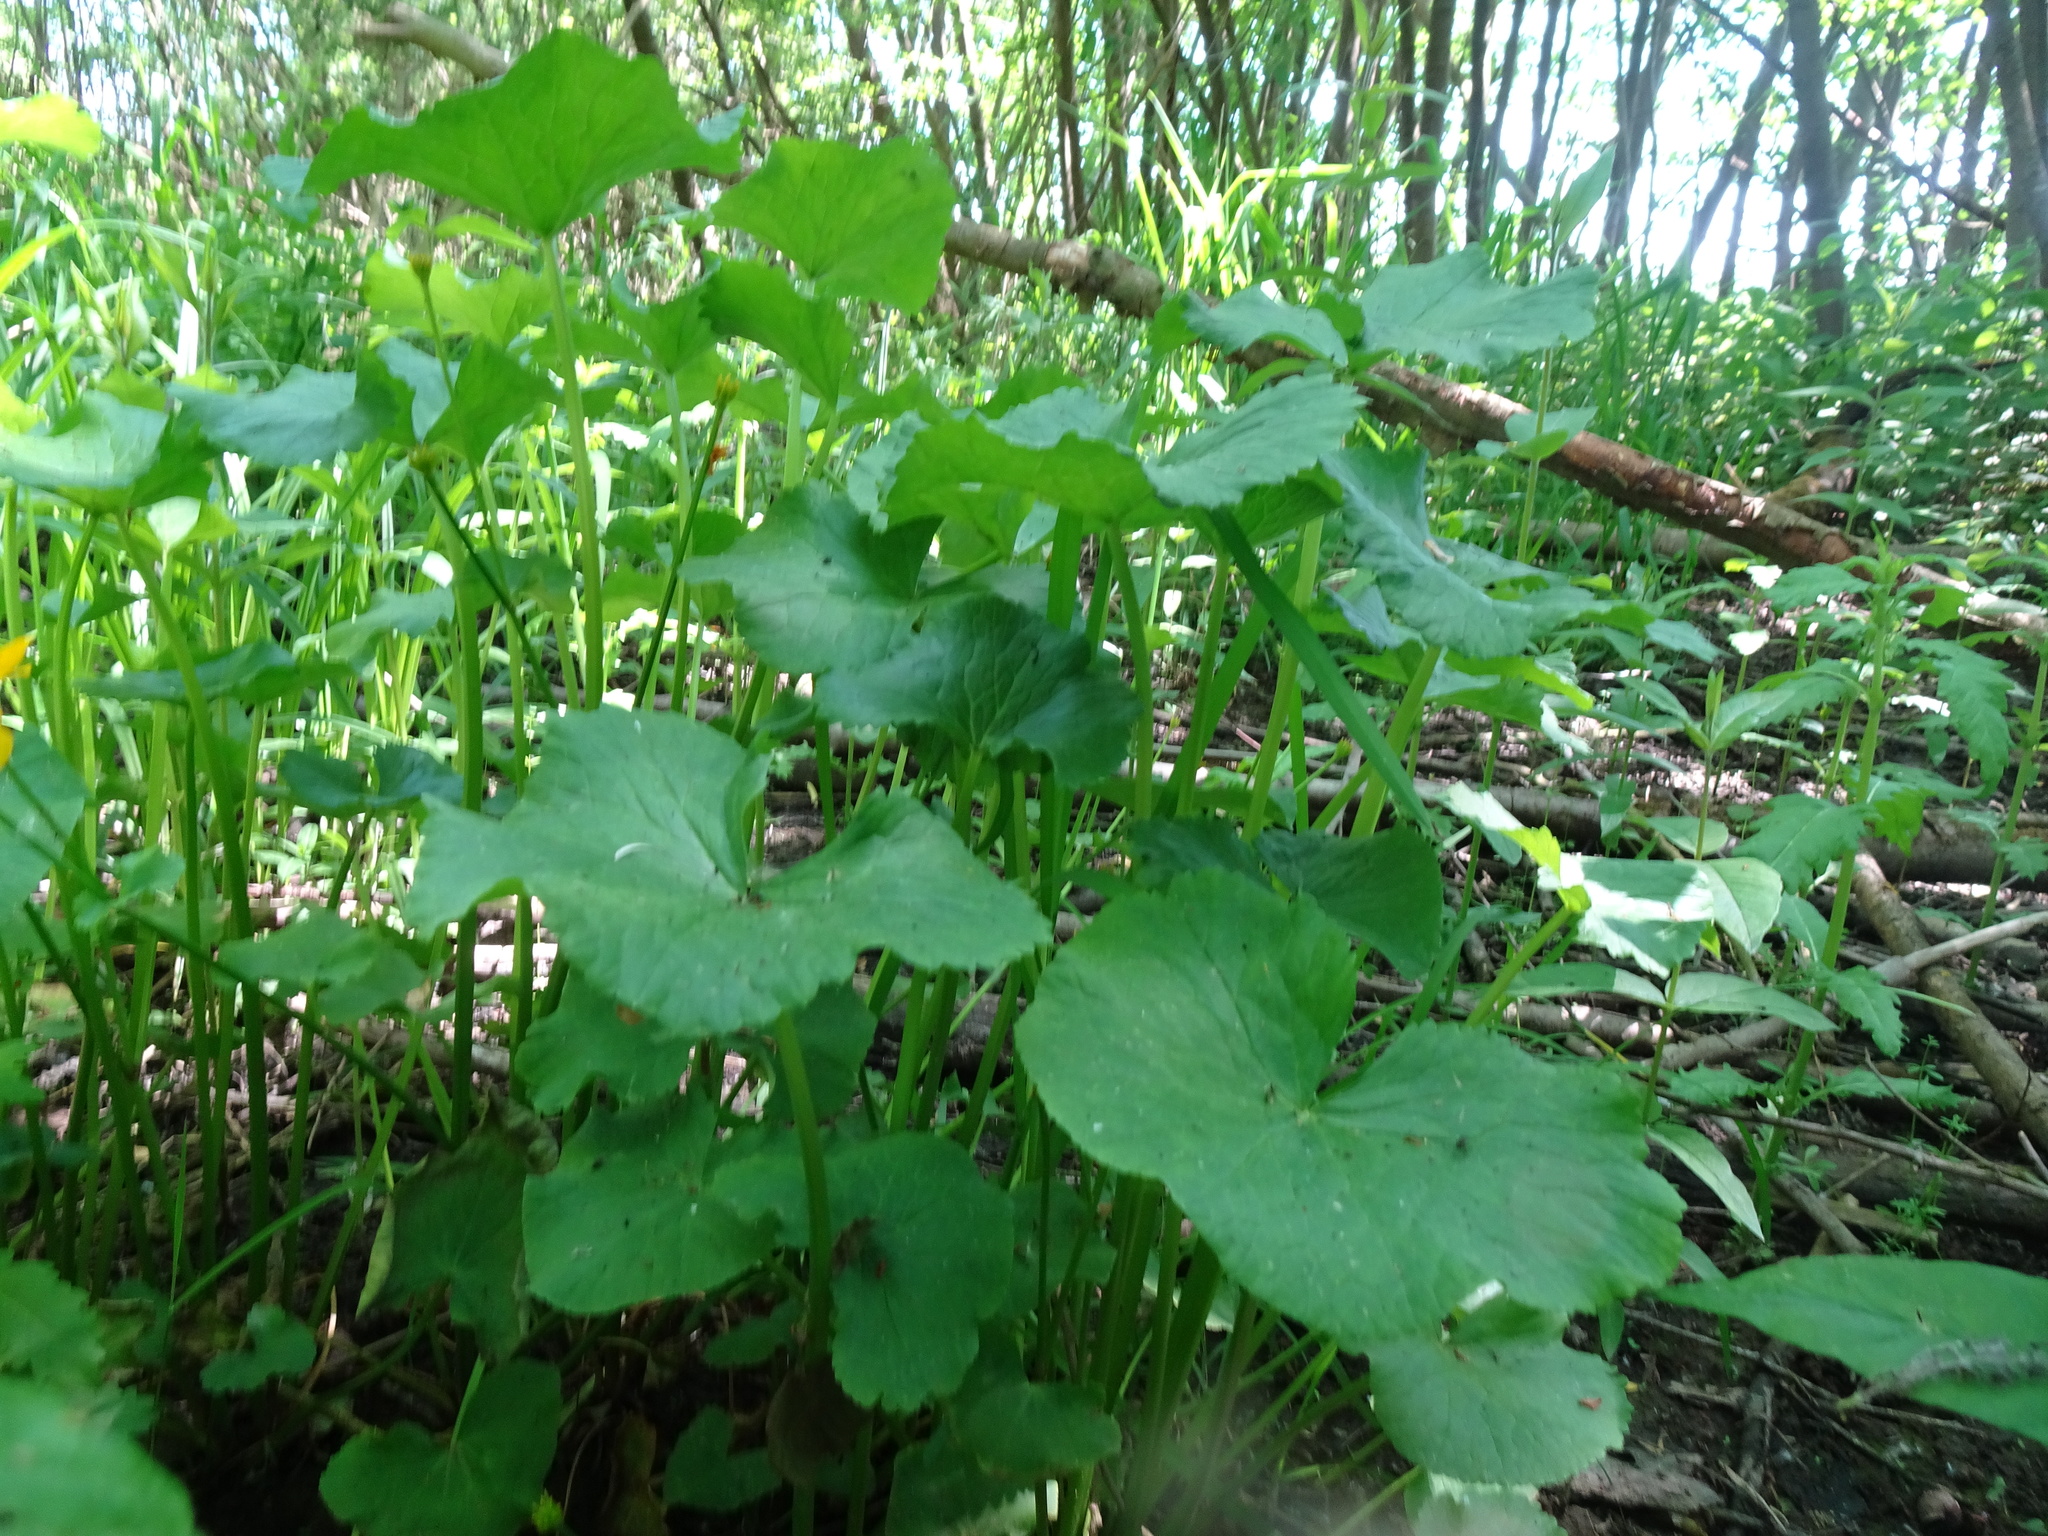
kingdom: Plantae
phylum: Tracheophyta
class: Magnoliopsida
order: Ranunculales
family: Ranunculaceae
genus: Caltha
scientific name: Caltha palustris
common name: Marsh marigold
